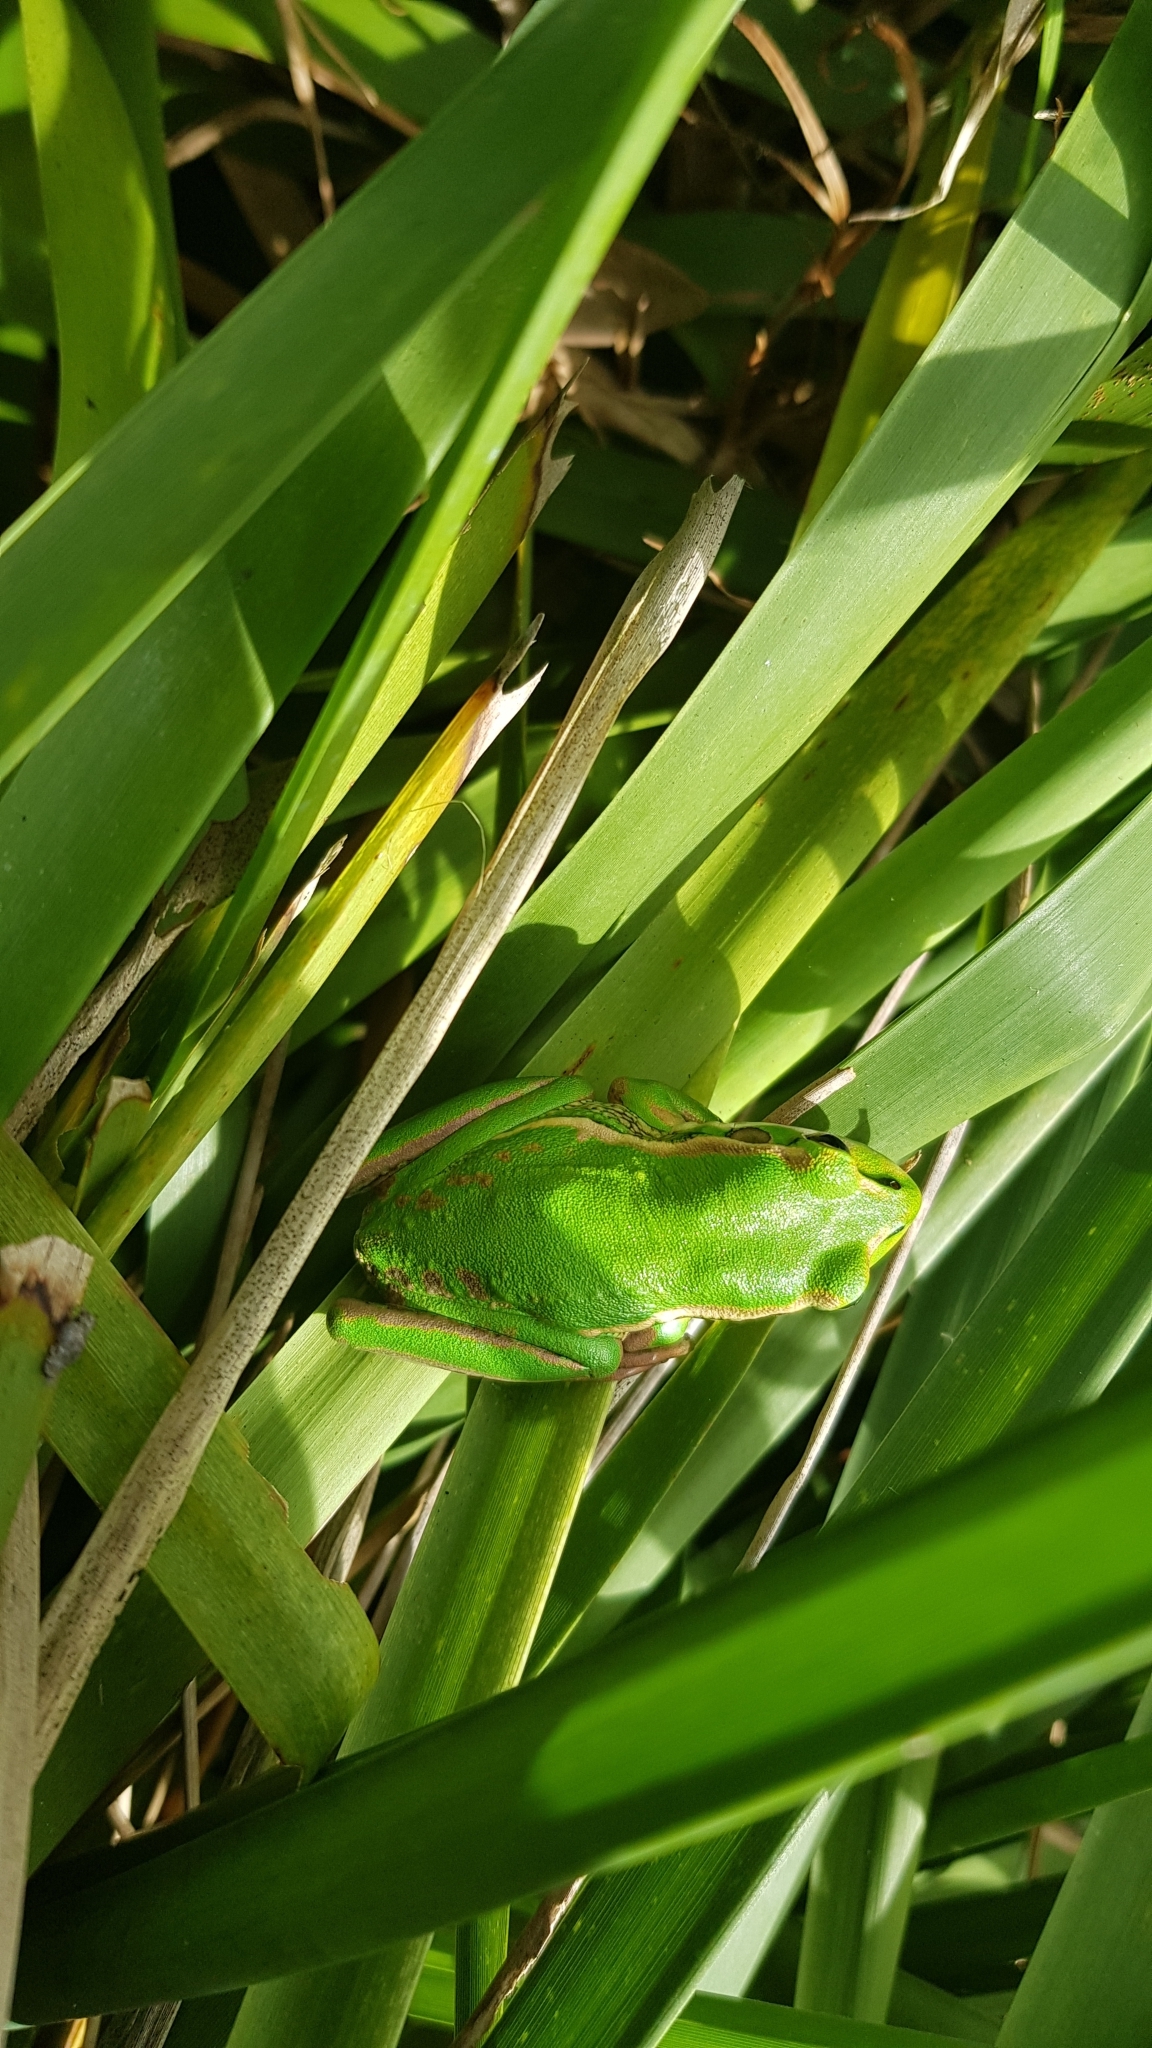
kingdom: Animalia
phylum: Chordata
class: Amphibia
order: Anura
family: Pelodryadidae
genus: Ranoidea
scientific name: Ranoidea aurea
